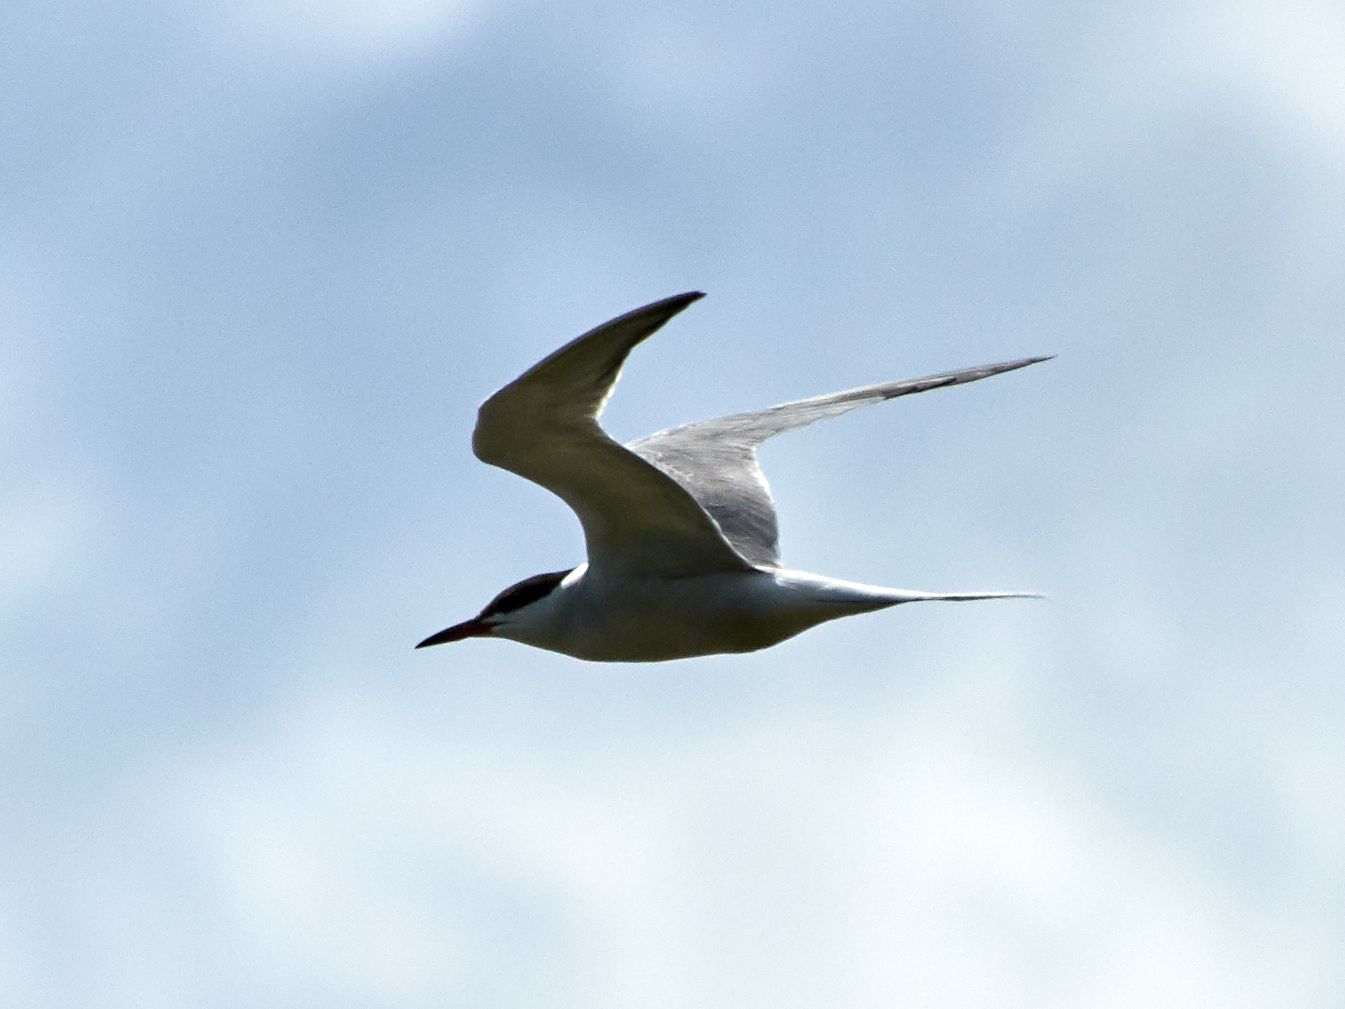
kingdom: Animalia
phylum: Chordata
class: Aves
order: Charadriiformes
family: Laridae
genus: Sterna
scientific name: Sterna hirundo
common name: Common tern
